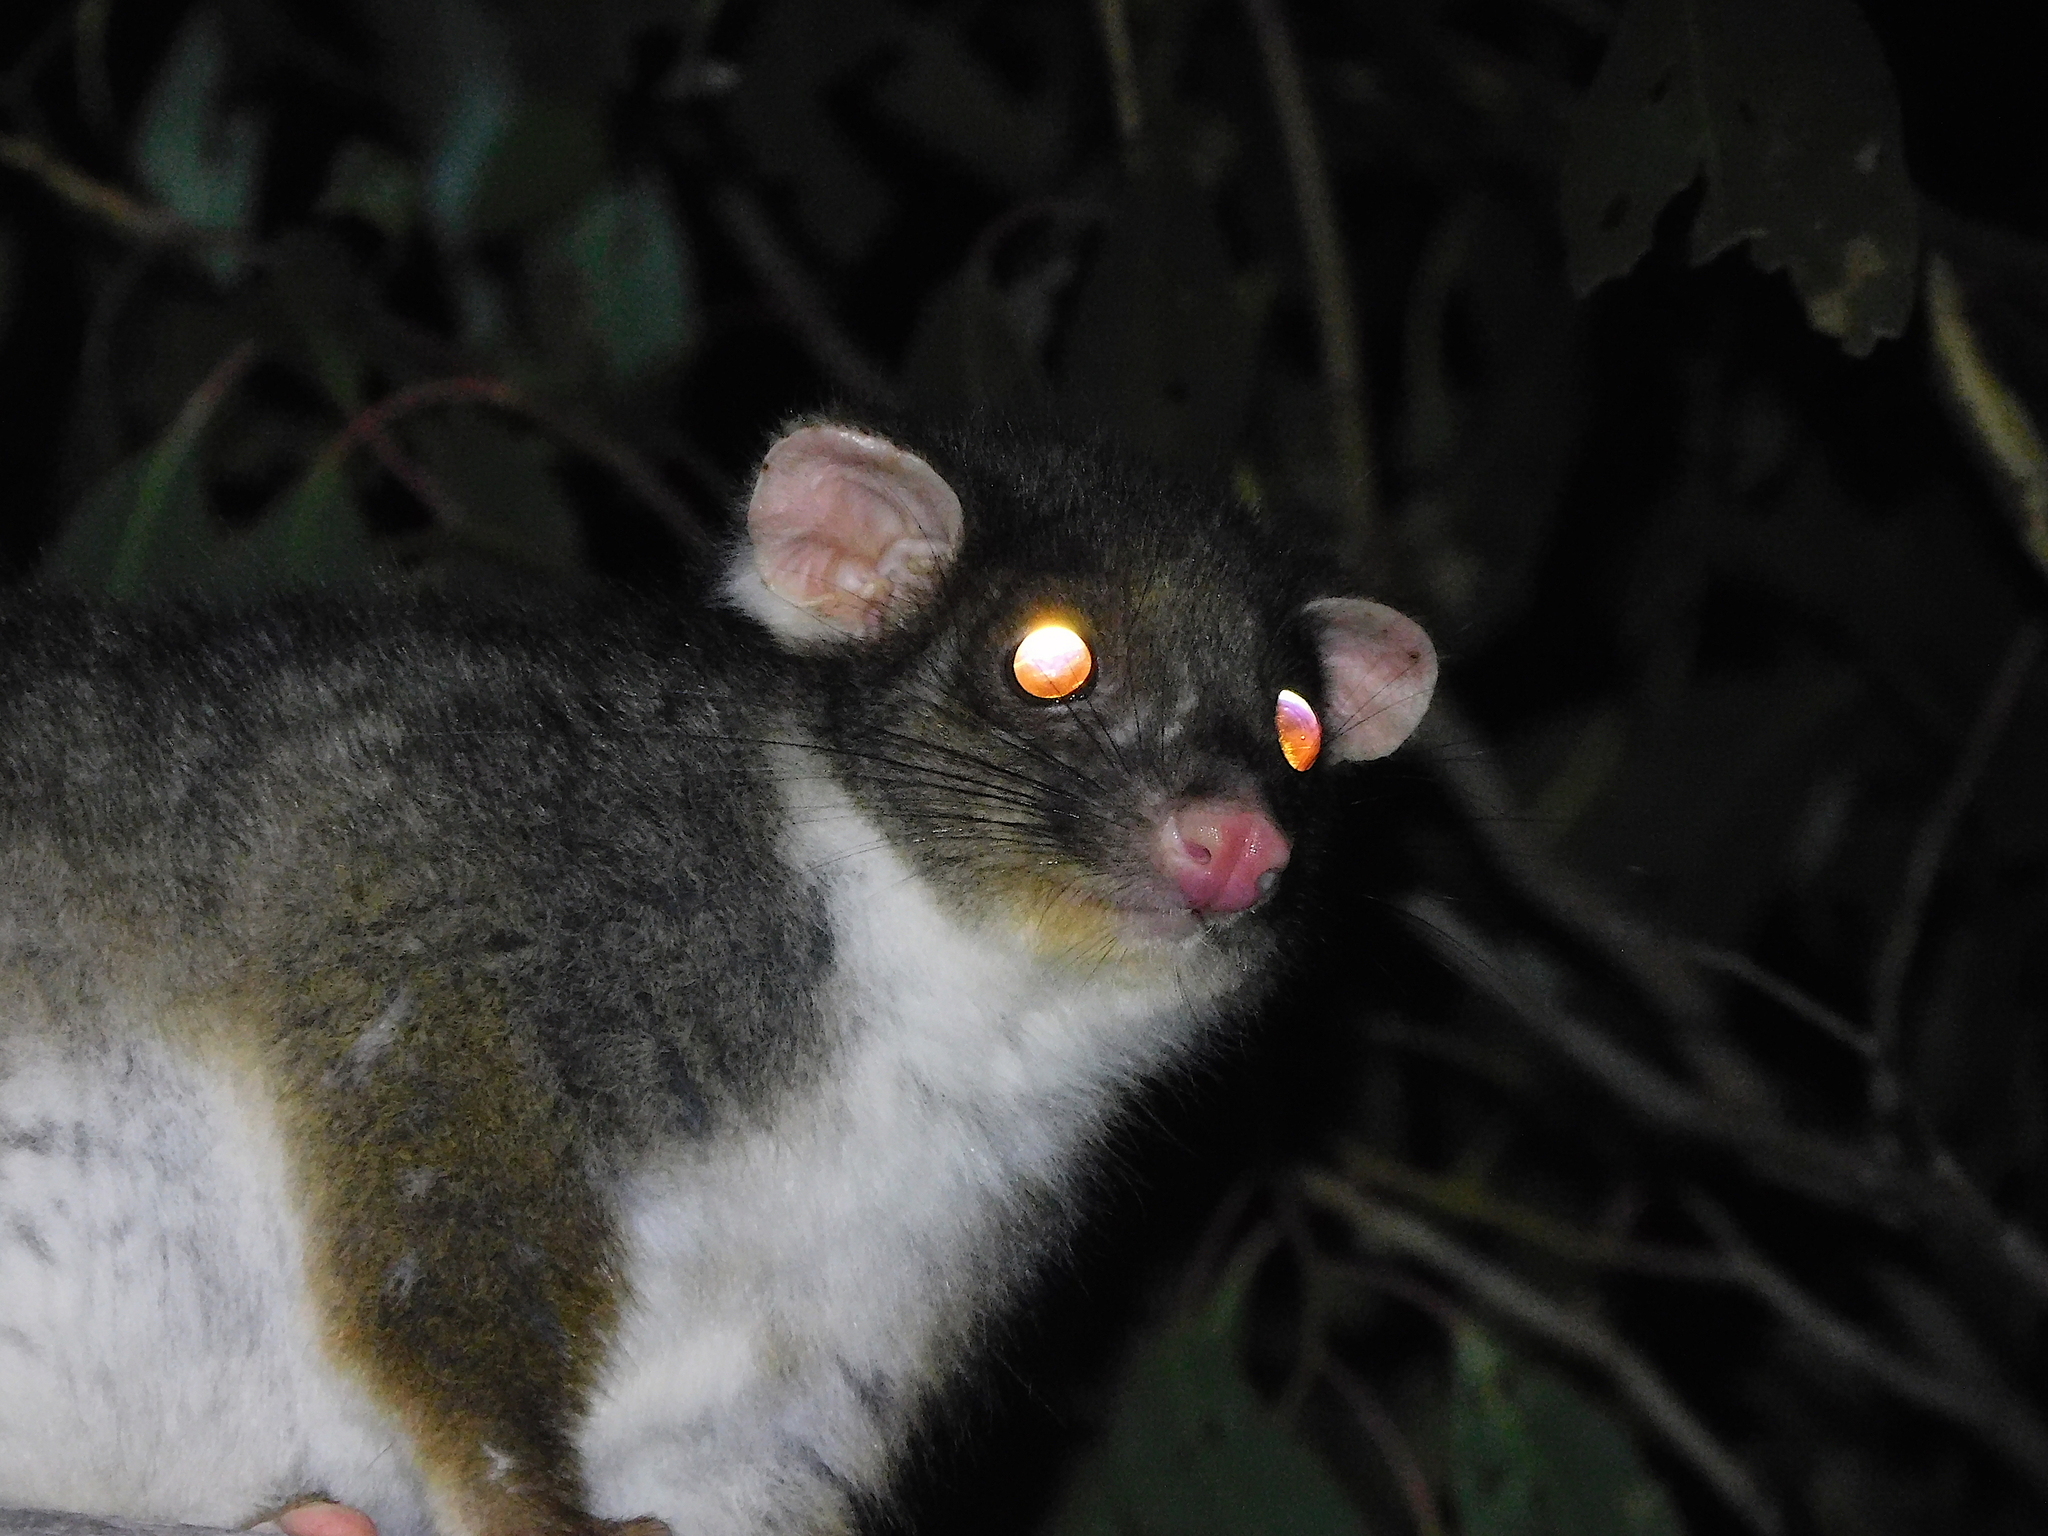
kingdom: Animalia
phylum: Chordata
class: Mammalia
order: Diprotodontia
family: Pseudocheiridae
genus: Pseudocheirus
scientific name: Pseudocheirus peregrinus
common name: Common ringtail possum
